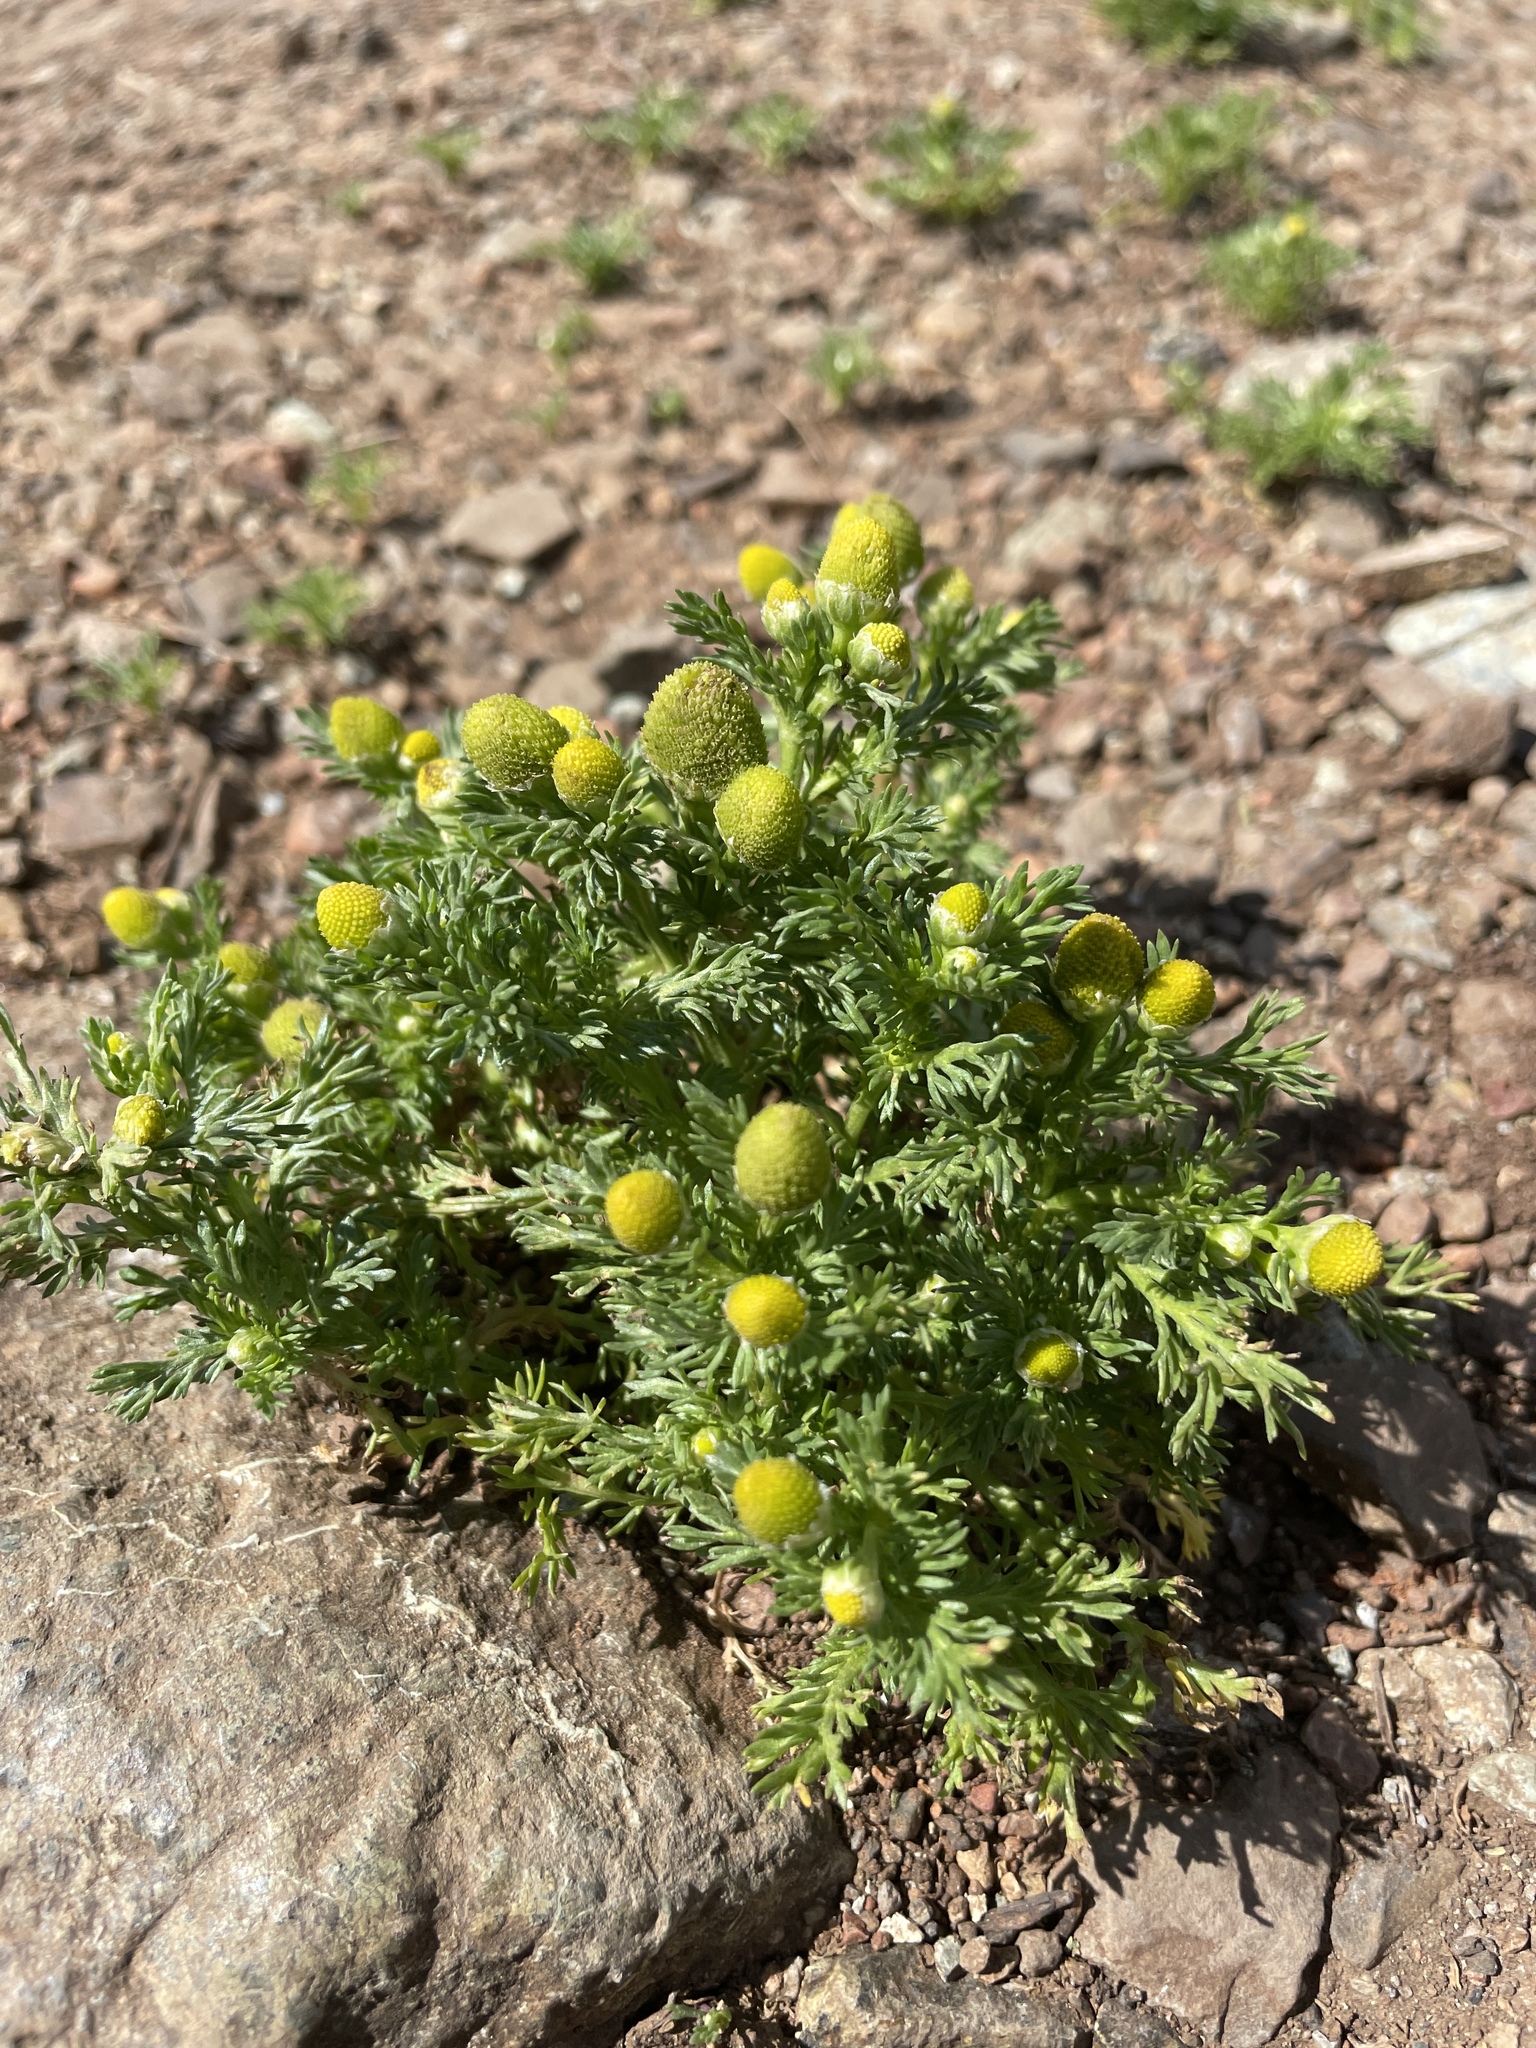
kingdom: Plantae
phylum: Tracheophyta
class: Magnoliopsida
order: Asterales
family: Asteraceae
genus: Matricaria
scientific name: Matricaria discoidea
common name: Disc mayweed
